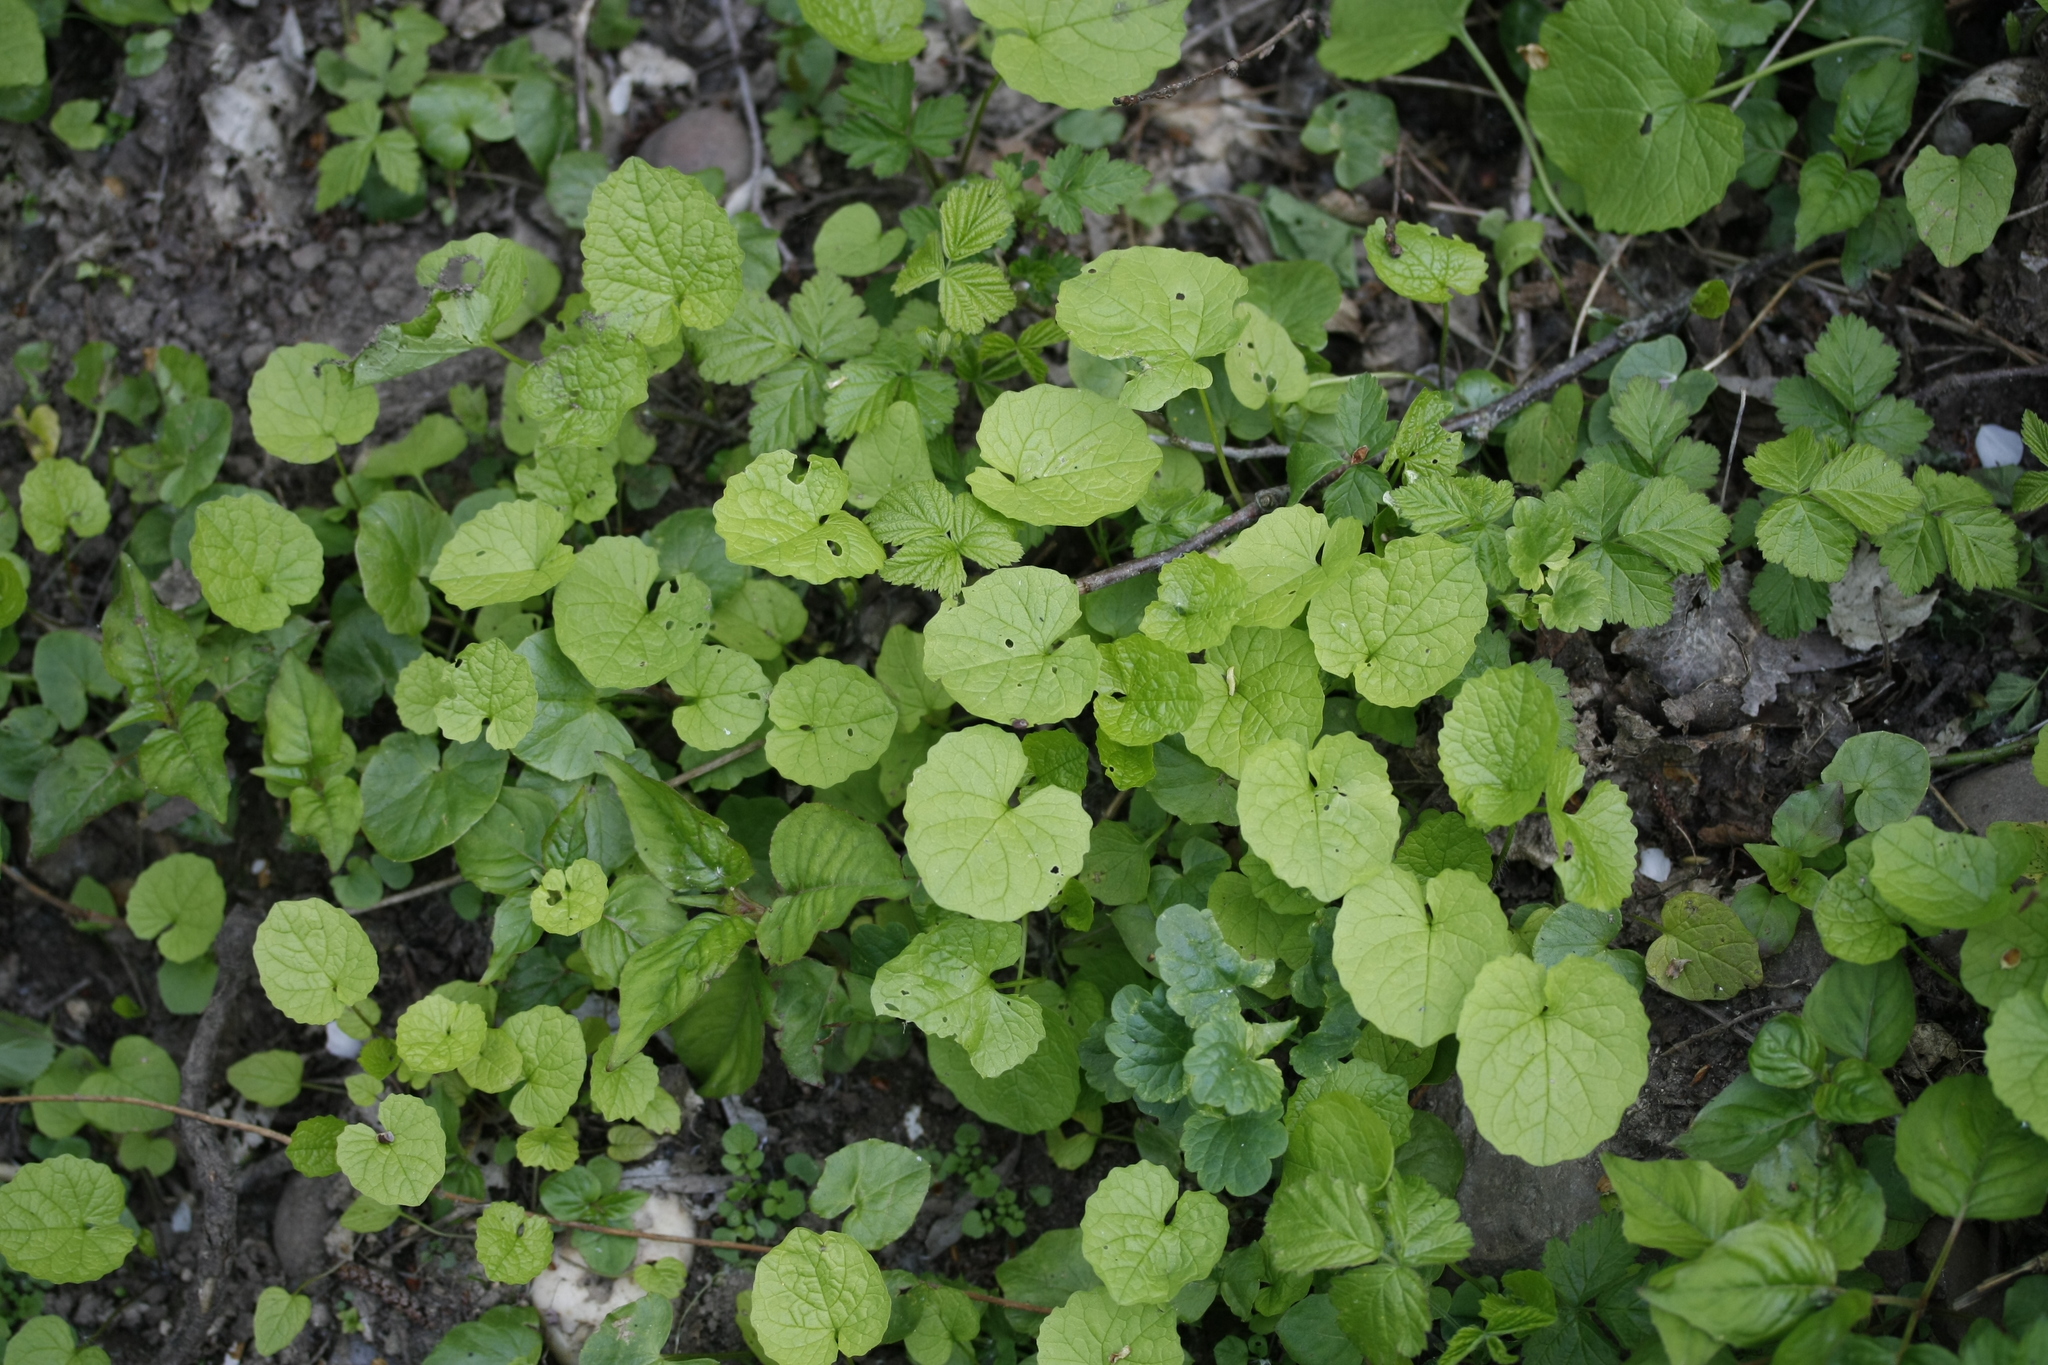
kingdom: Plantae
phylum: Tracheophyta
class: Magnoliopsida
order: Brassicales
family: Brassicaceae
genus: Alliaria
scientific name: Alliaria petiolata
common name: Garlic mustard
